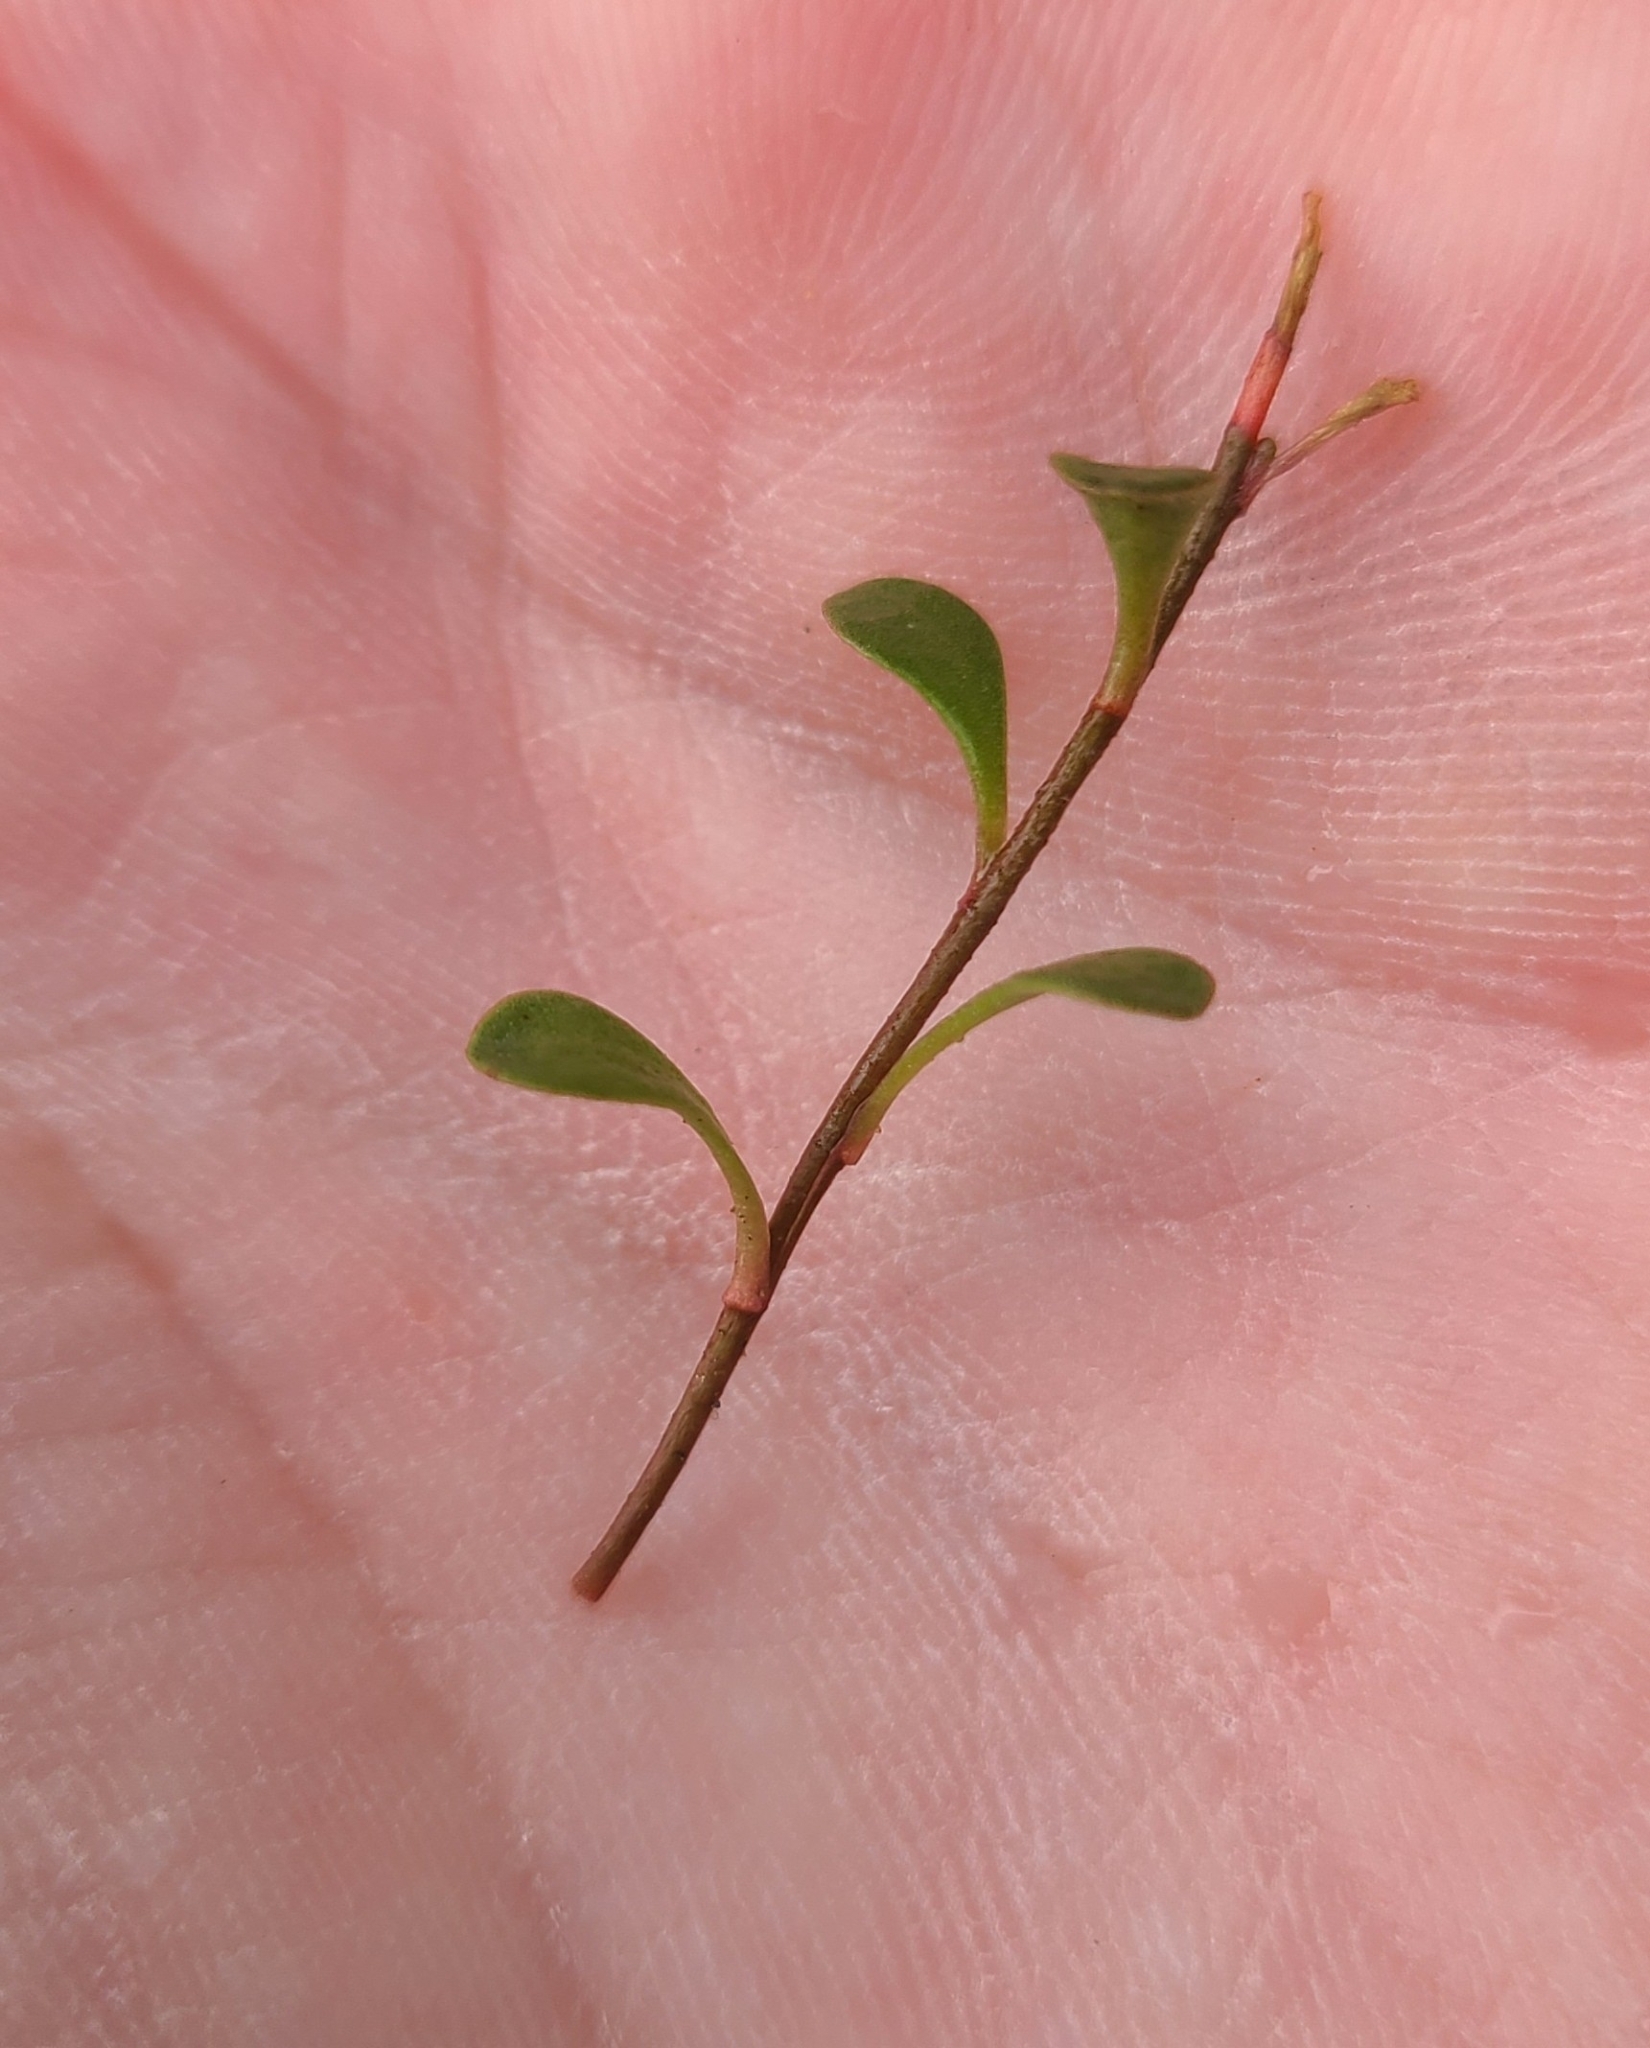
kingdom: Plantae
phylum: Tracheophyta
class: Magnoliopsida
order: Ericales
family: Primulaceae
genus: Samolus
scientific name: Samolus repens
